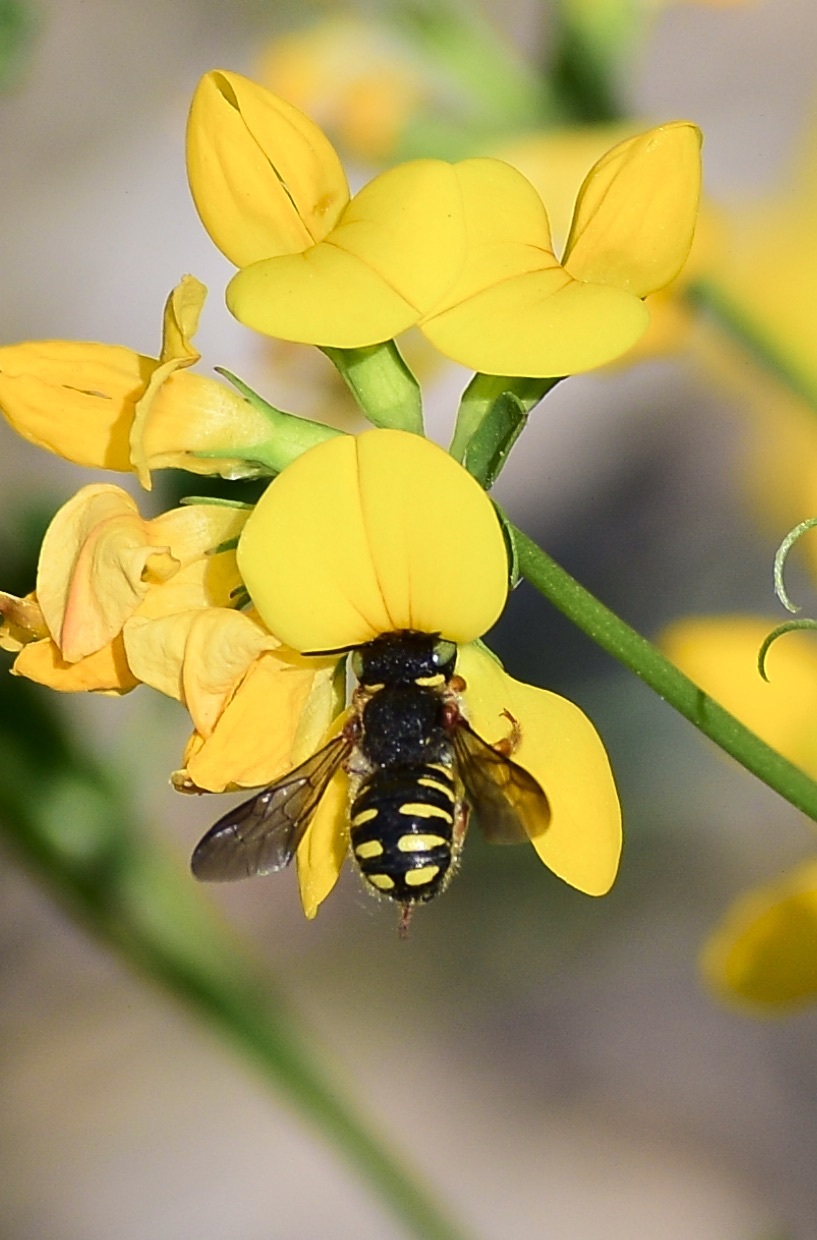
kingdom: Animalia
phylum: Arthropoda
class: Insecta
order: Hymenoptera
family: Megachilidae
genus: Anthidium
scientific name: Anthidium oblongatum
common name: Oblong wool carder bee
